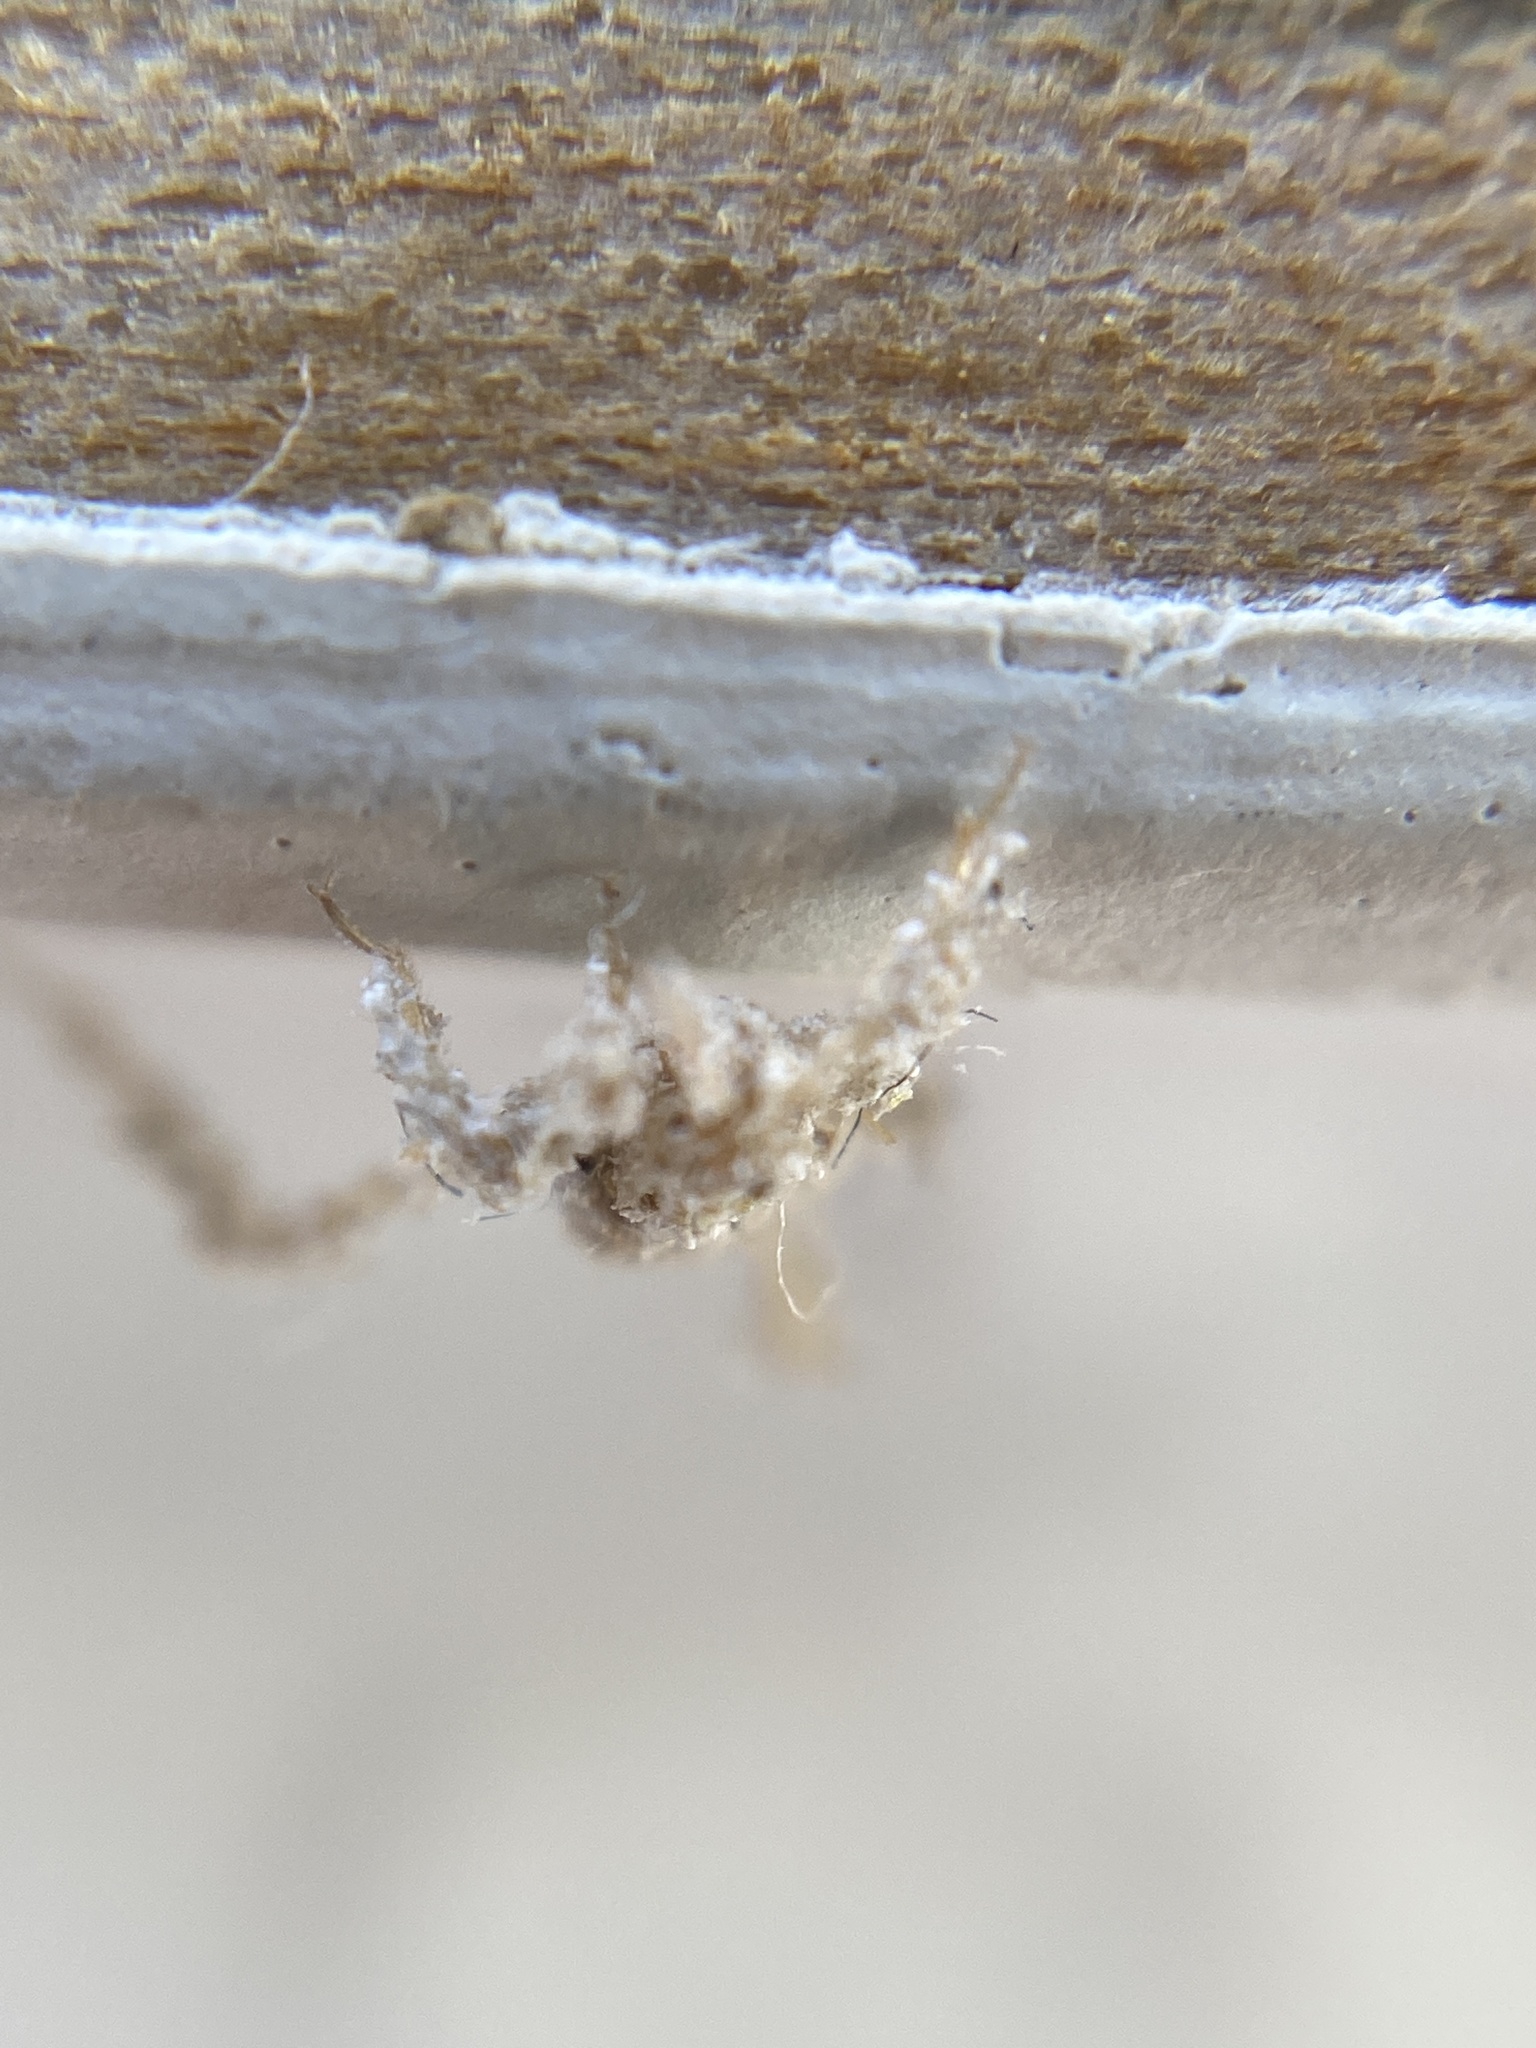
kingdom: Animalia
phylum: Arthropoda
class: Insecta
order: Hemiptera
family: Reduviidae
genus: Reduvius
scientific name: Reduvius personatus
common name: Masked hunter
